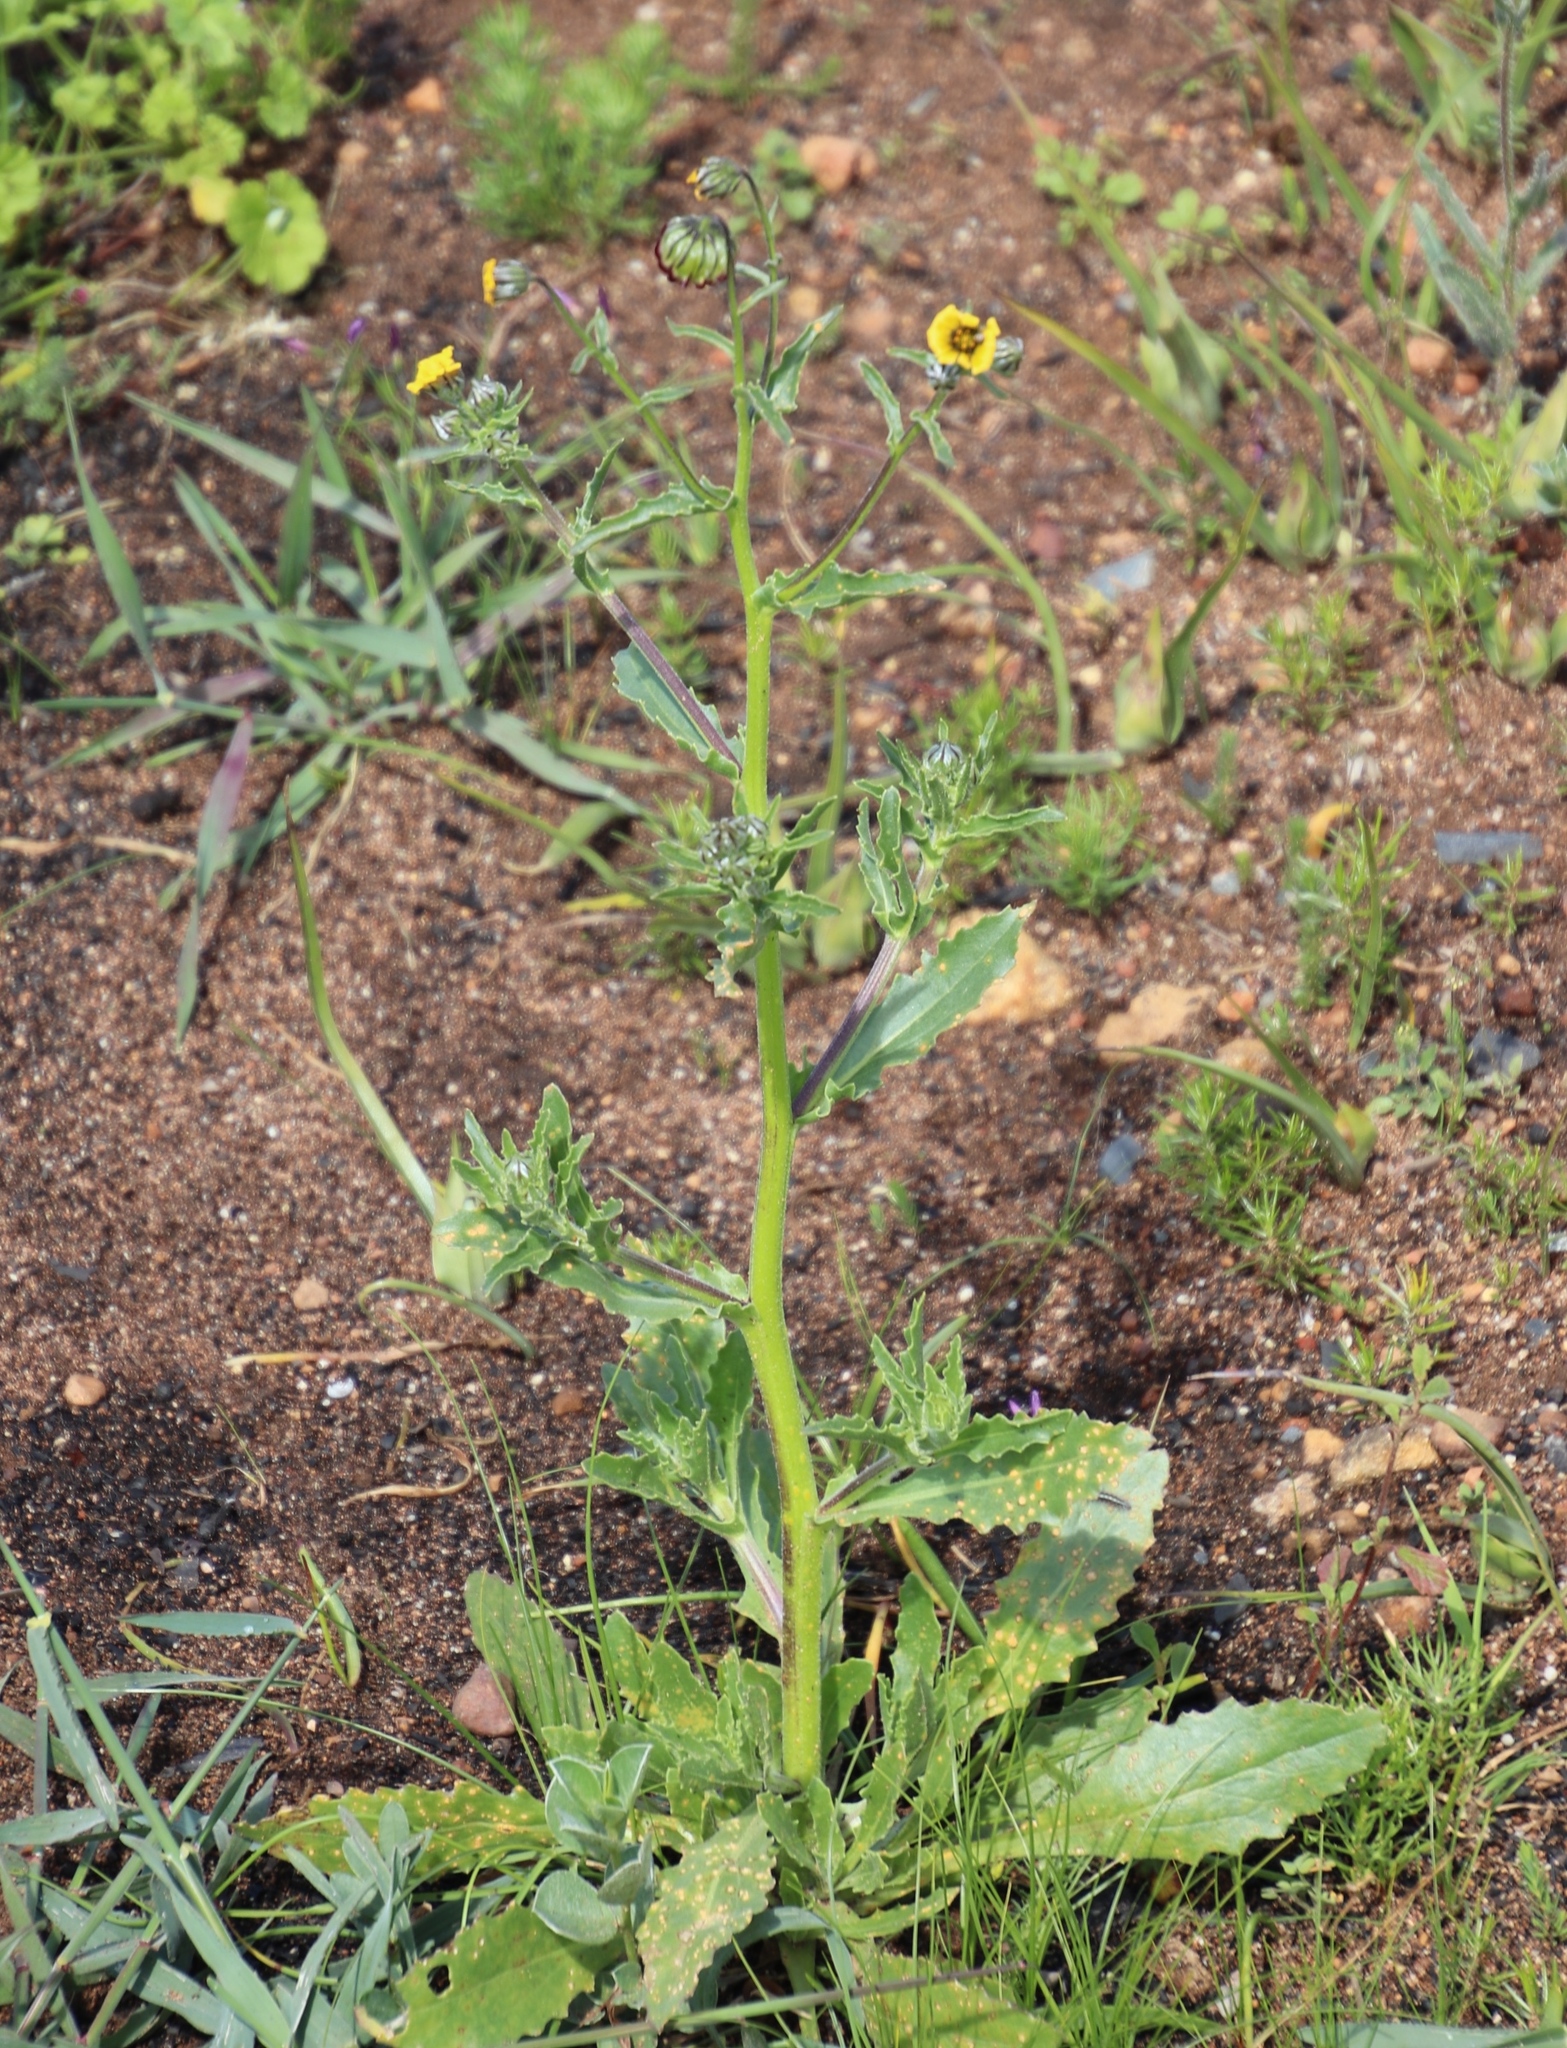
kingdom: Plantae
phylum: Tracheophyta
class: Magnoliopsida
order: Asterales
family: Asteraceae
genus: Osteospermum
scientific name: Osteospermum monstrosum
